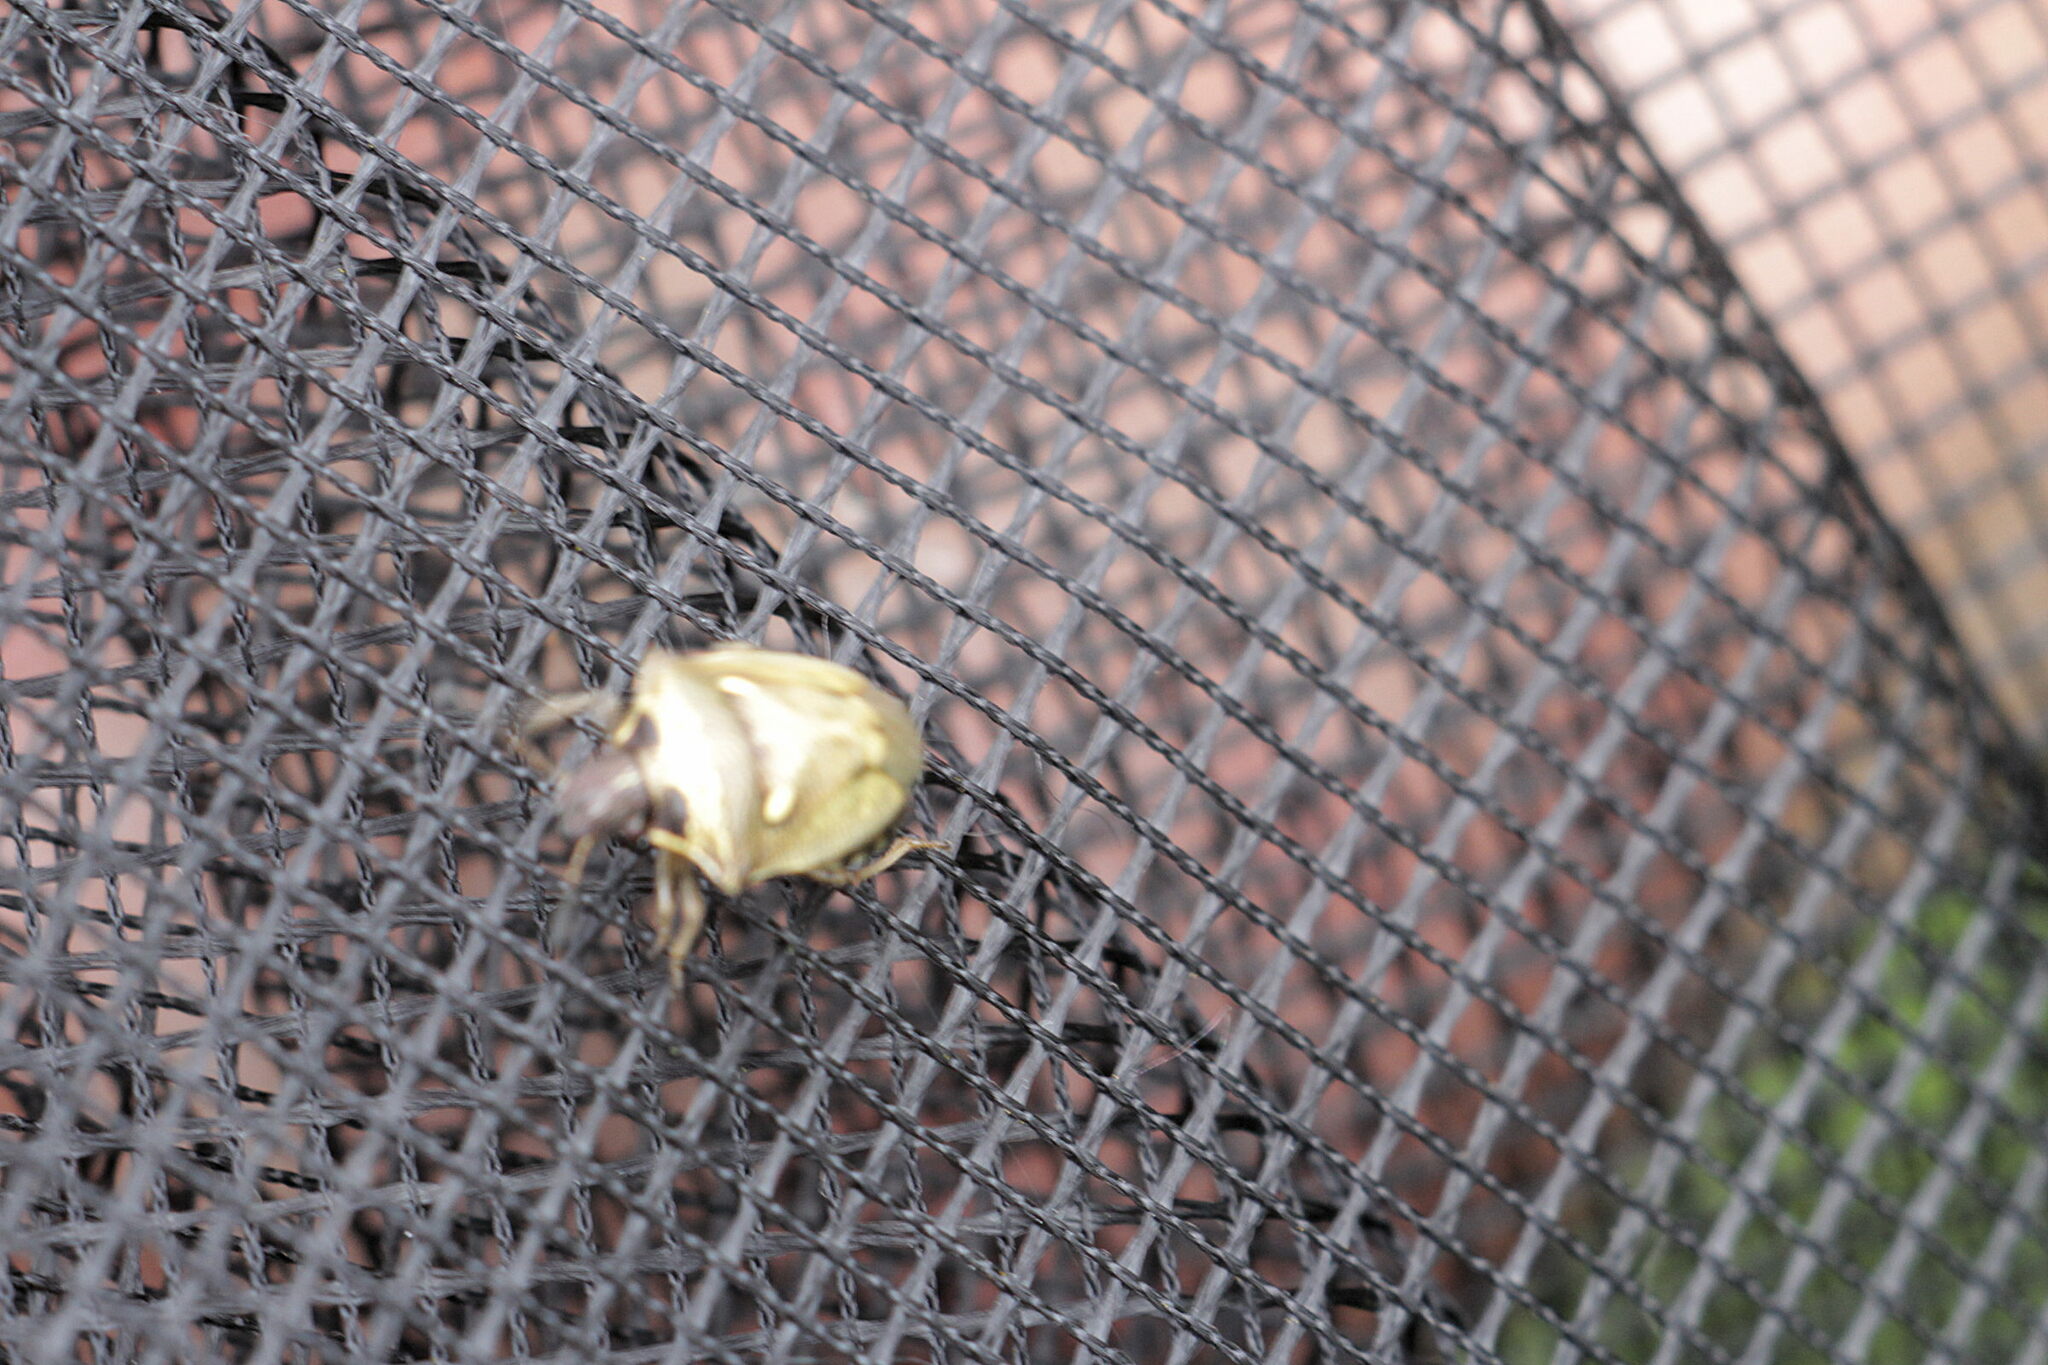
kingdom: Animalia
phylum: Arthropoda
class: Insecta
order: Hemiptera
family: Pentatomidae
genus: Eysarcoris
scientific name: Eysarcoris aeneus
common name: New forest shieldbug
